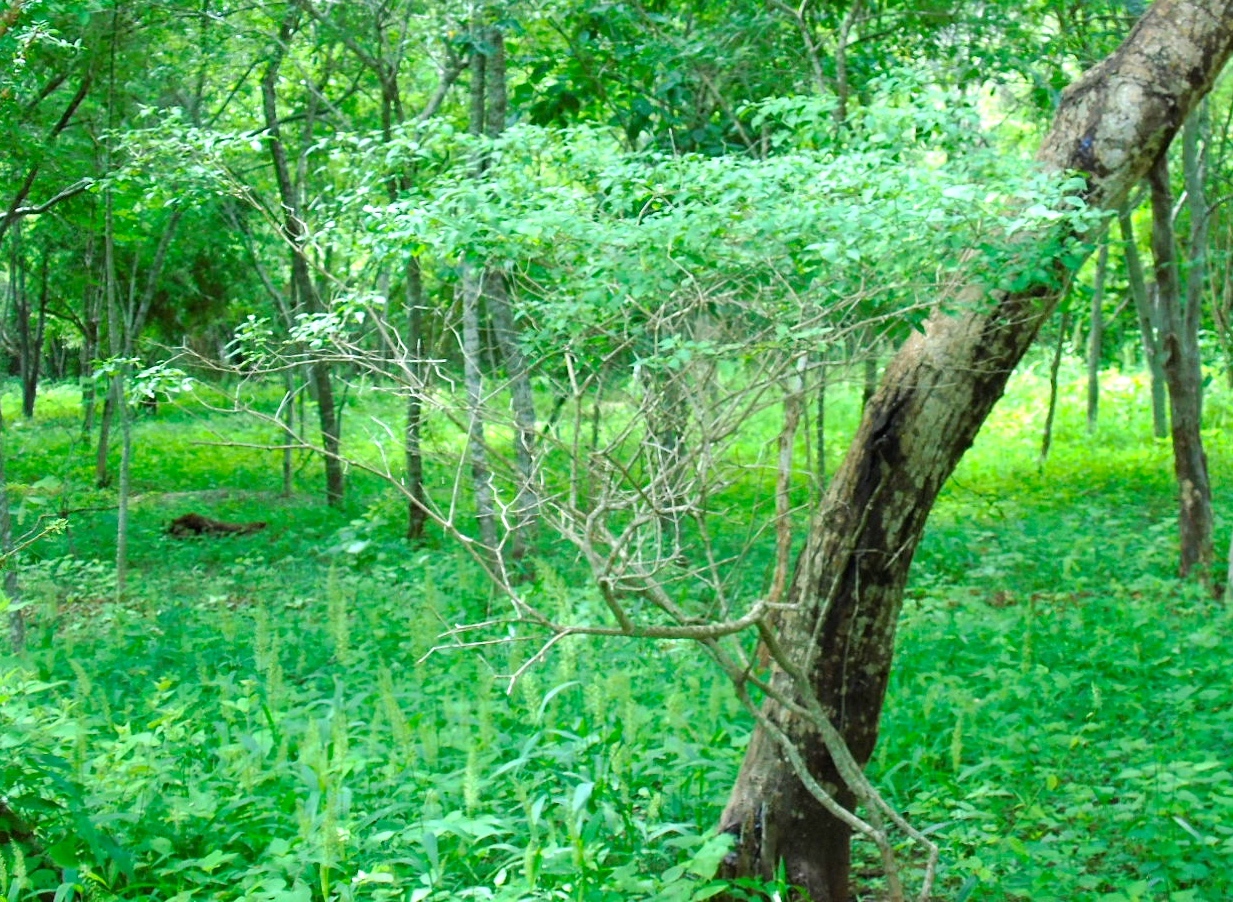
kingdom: Plantae
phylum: Tracheophyta
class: Magnoliopsida
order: Solanales
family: Solanaceae
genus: Capsicum
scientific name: Capsicum annuum
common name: Sweet pepper
